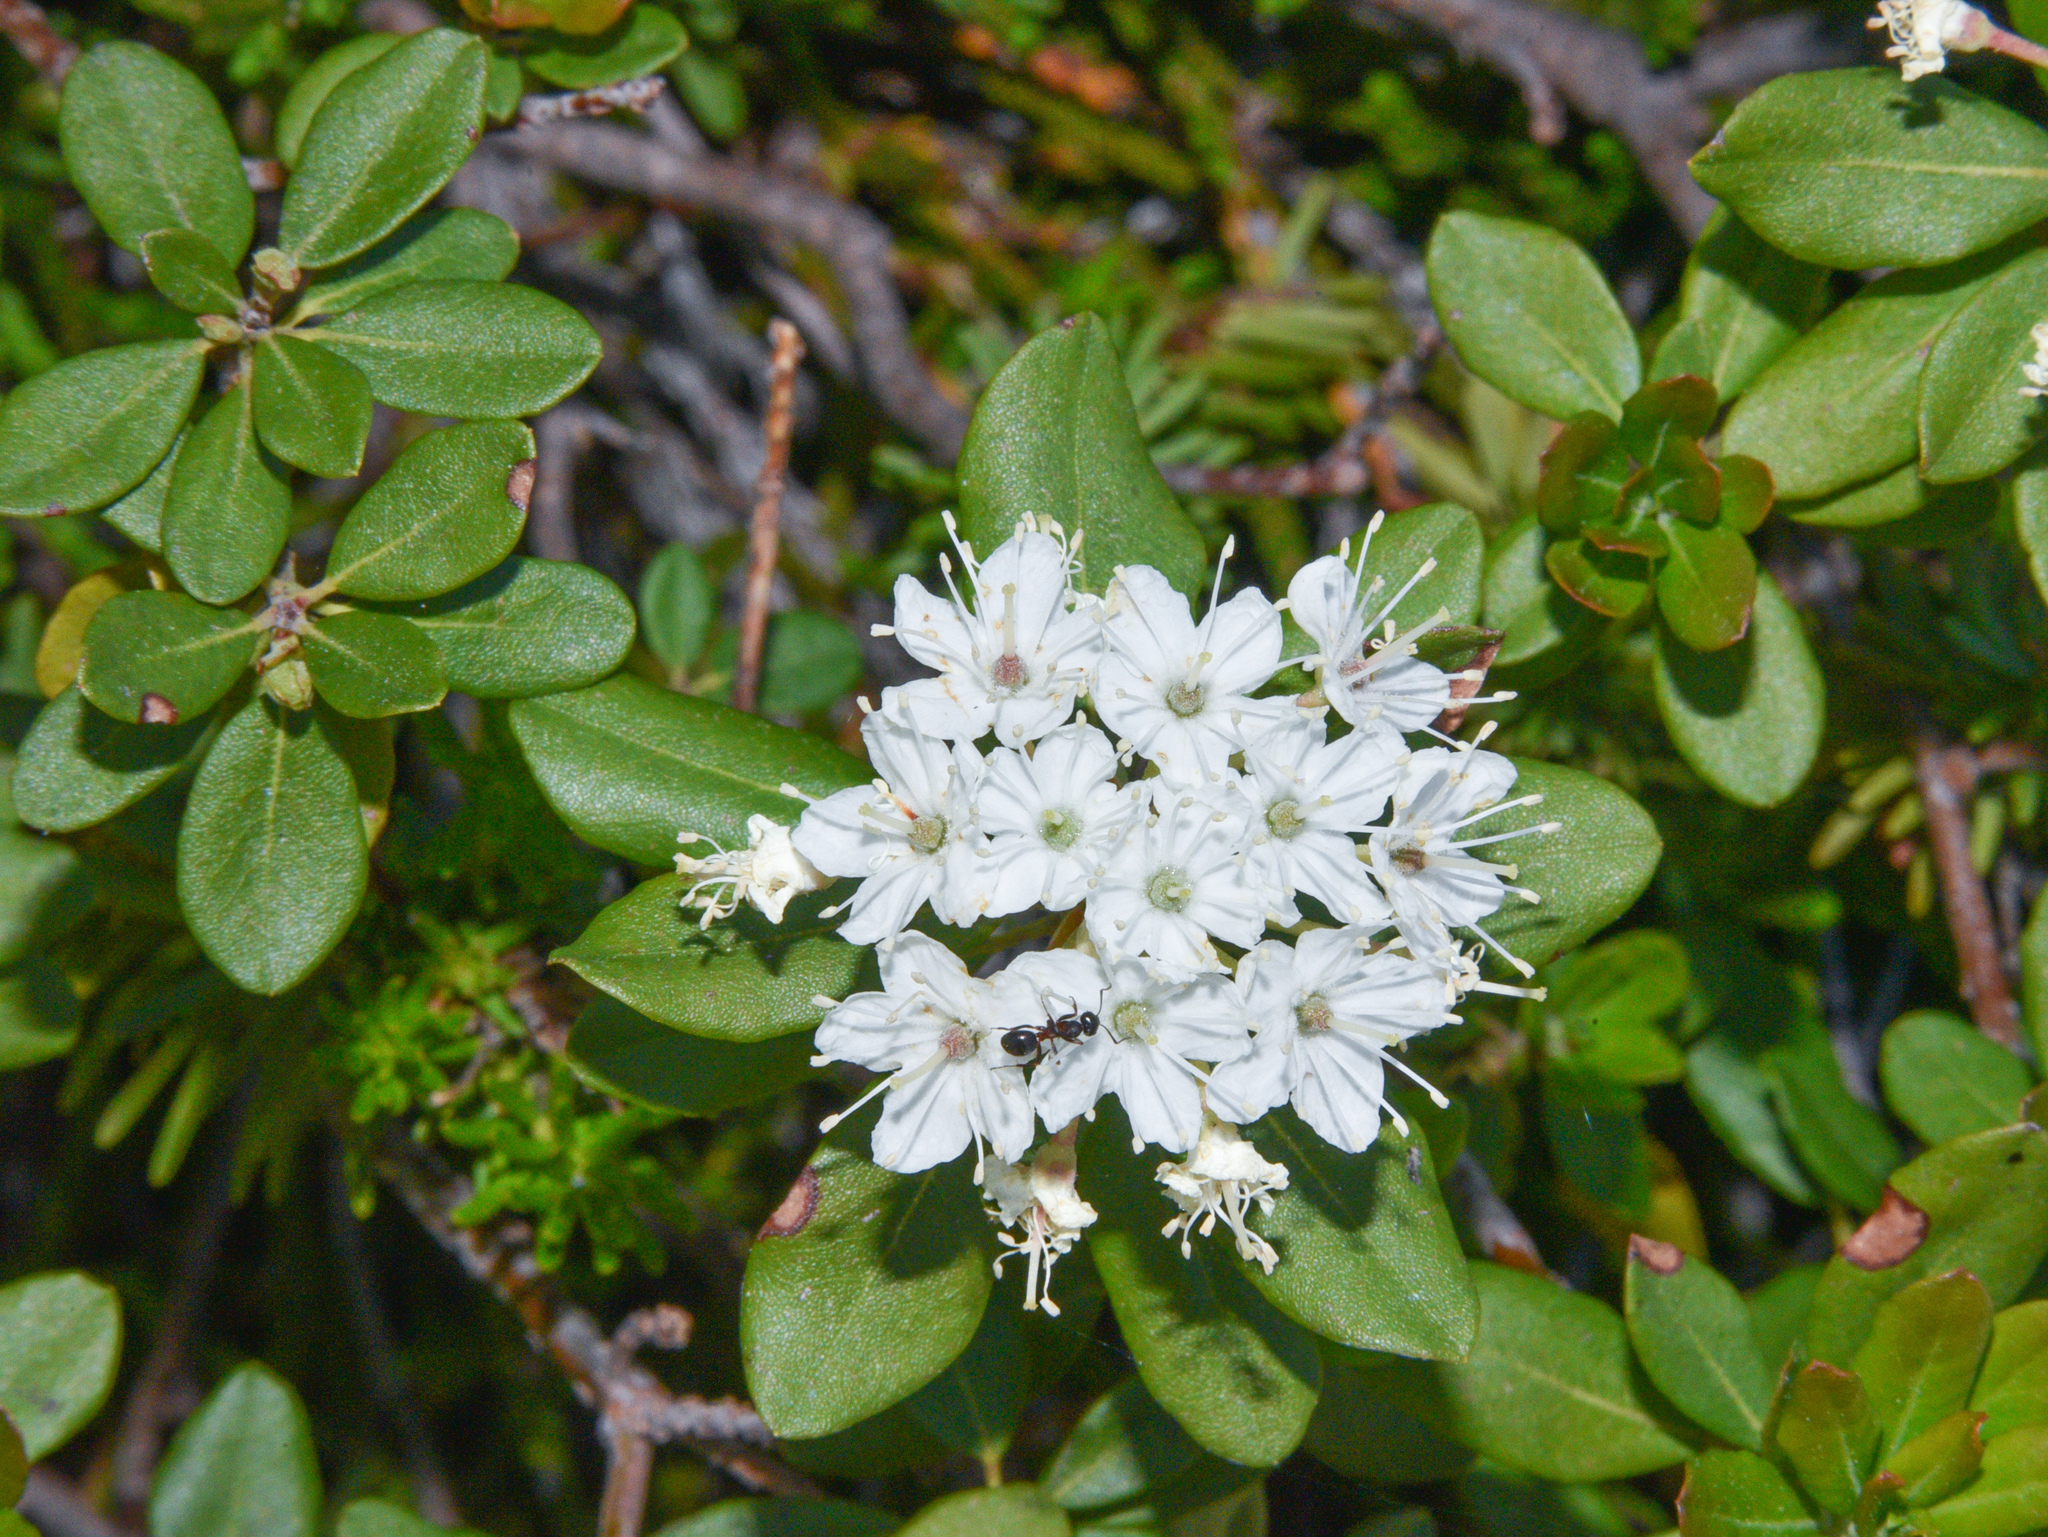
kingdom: Plantae
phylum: Tracheophyta
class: Magnoliopsida
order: Ericales
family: Ericaceae
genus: Rhododendron
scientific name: Rhododendron columbianum
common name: Western labrador tea
